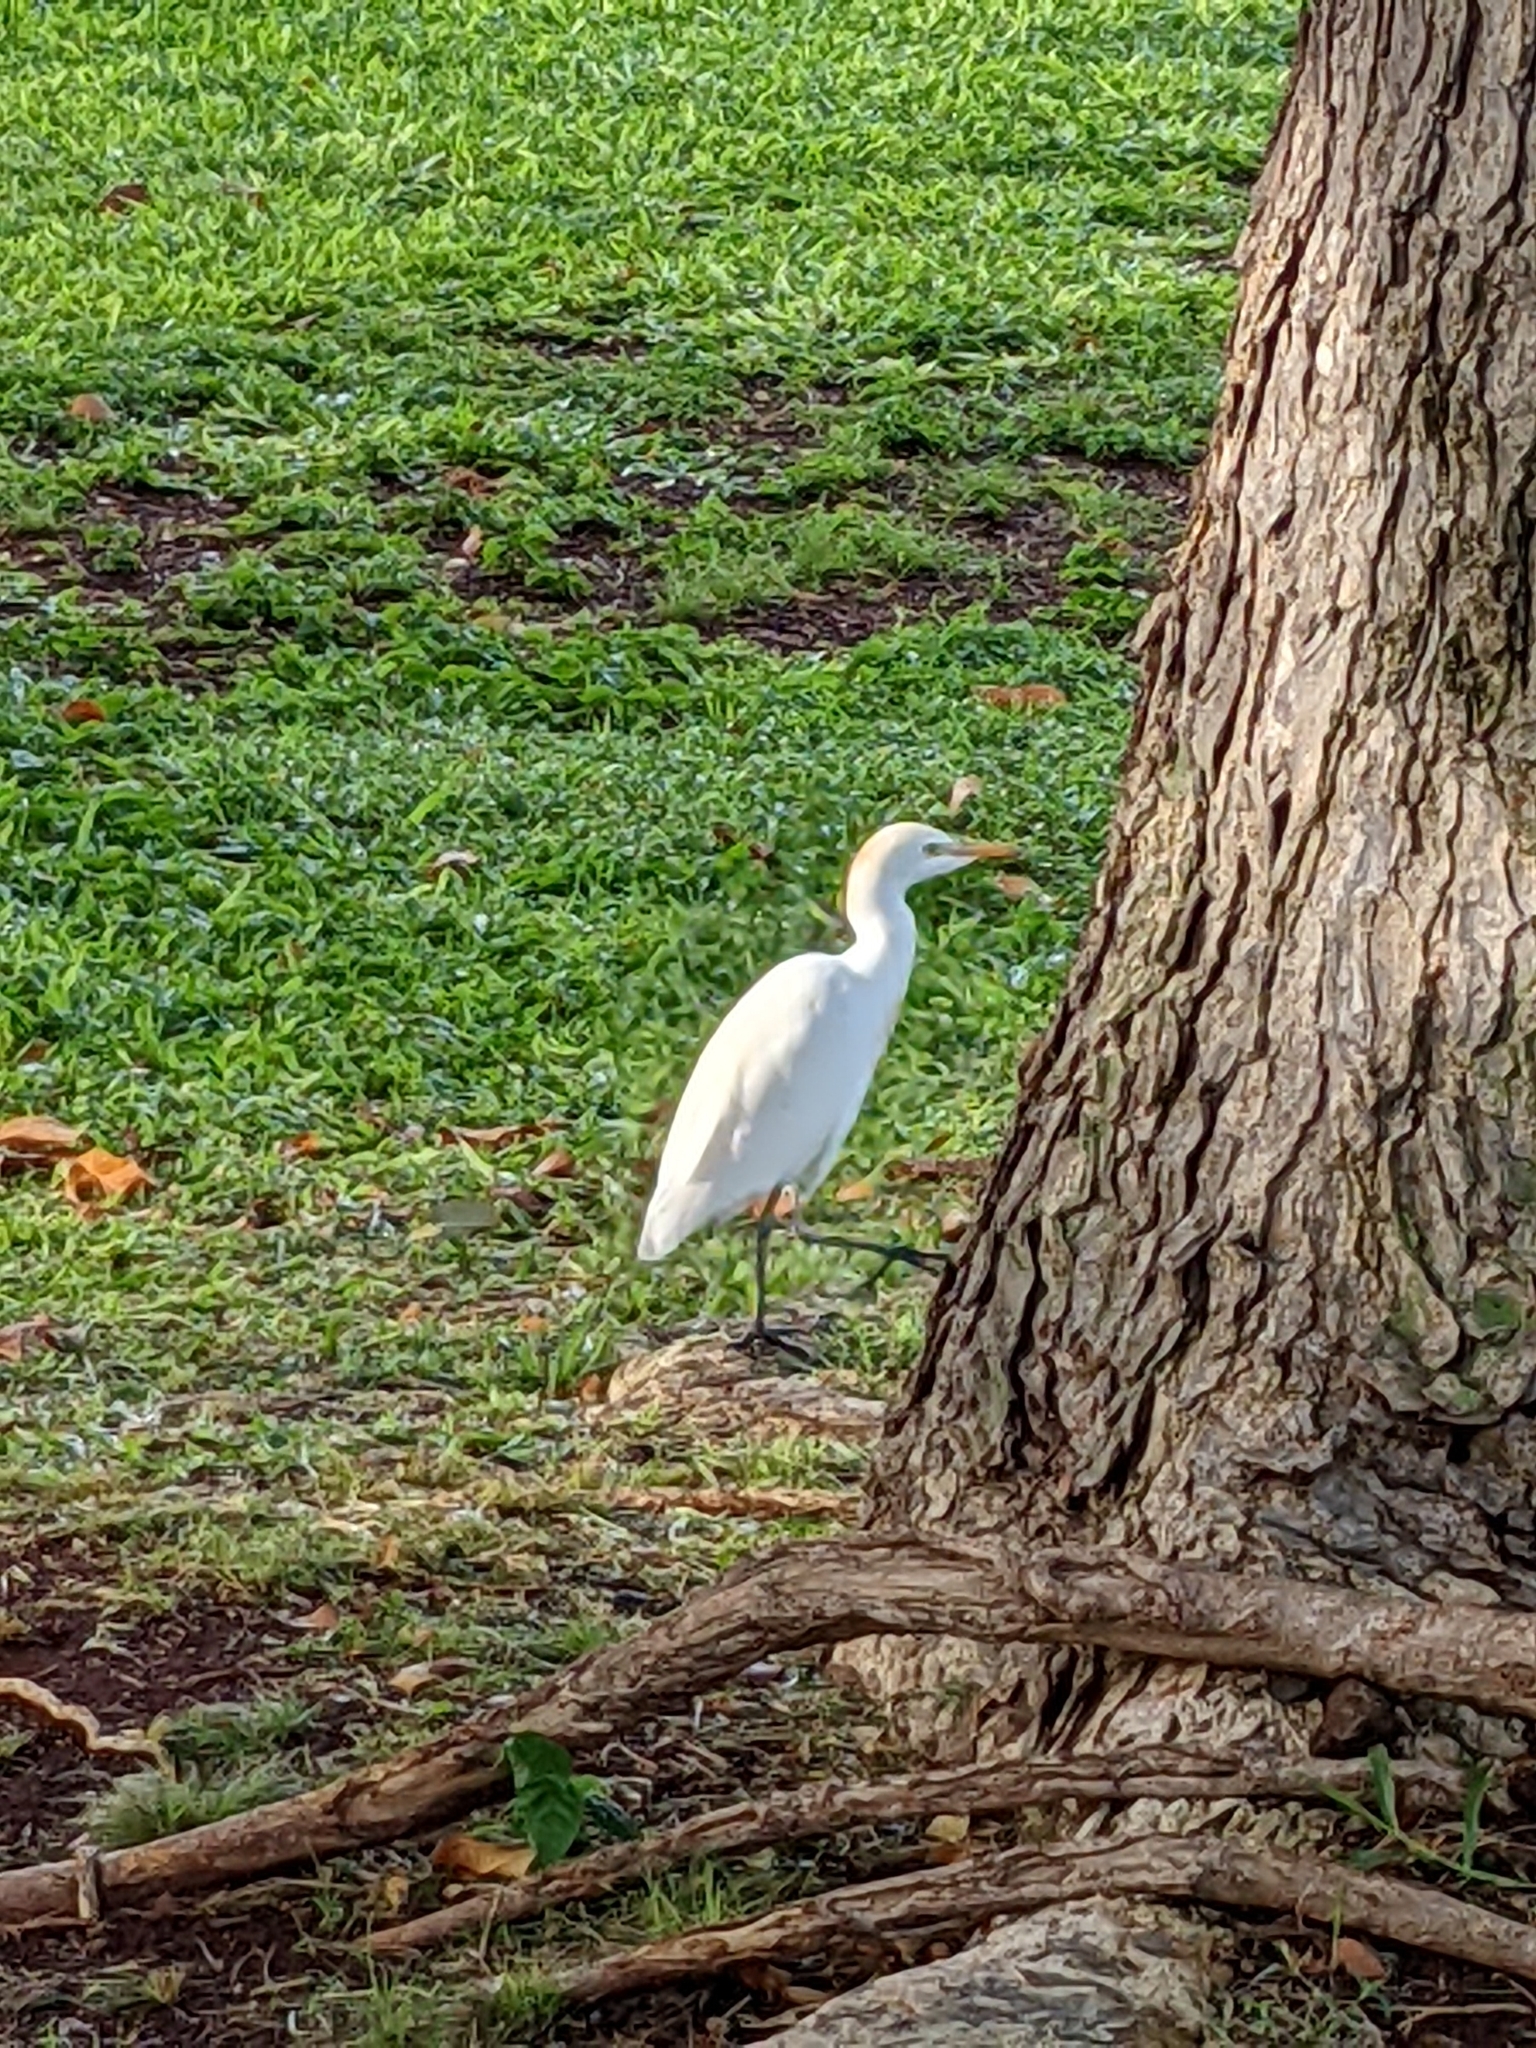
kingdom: Animalia
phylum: Chordata
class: Aves
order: Pelecaniformes
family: Ardeidae
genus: Bubulcus
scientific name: Bubulcus ibis
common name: Cattle egret
